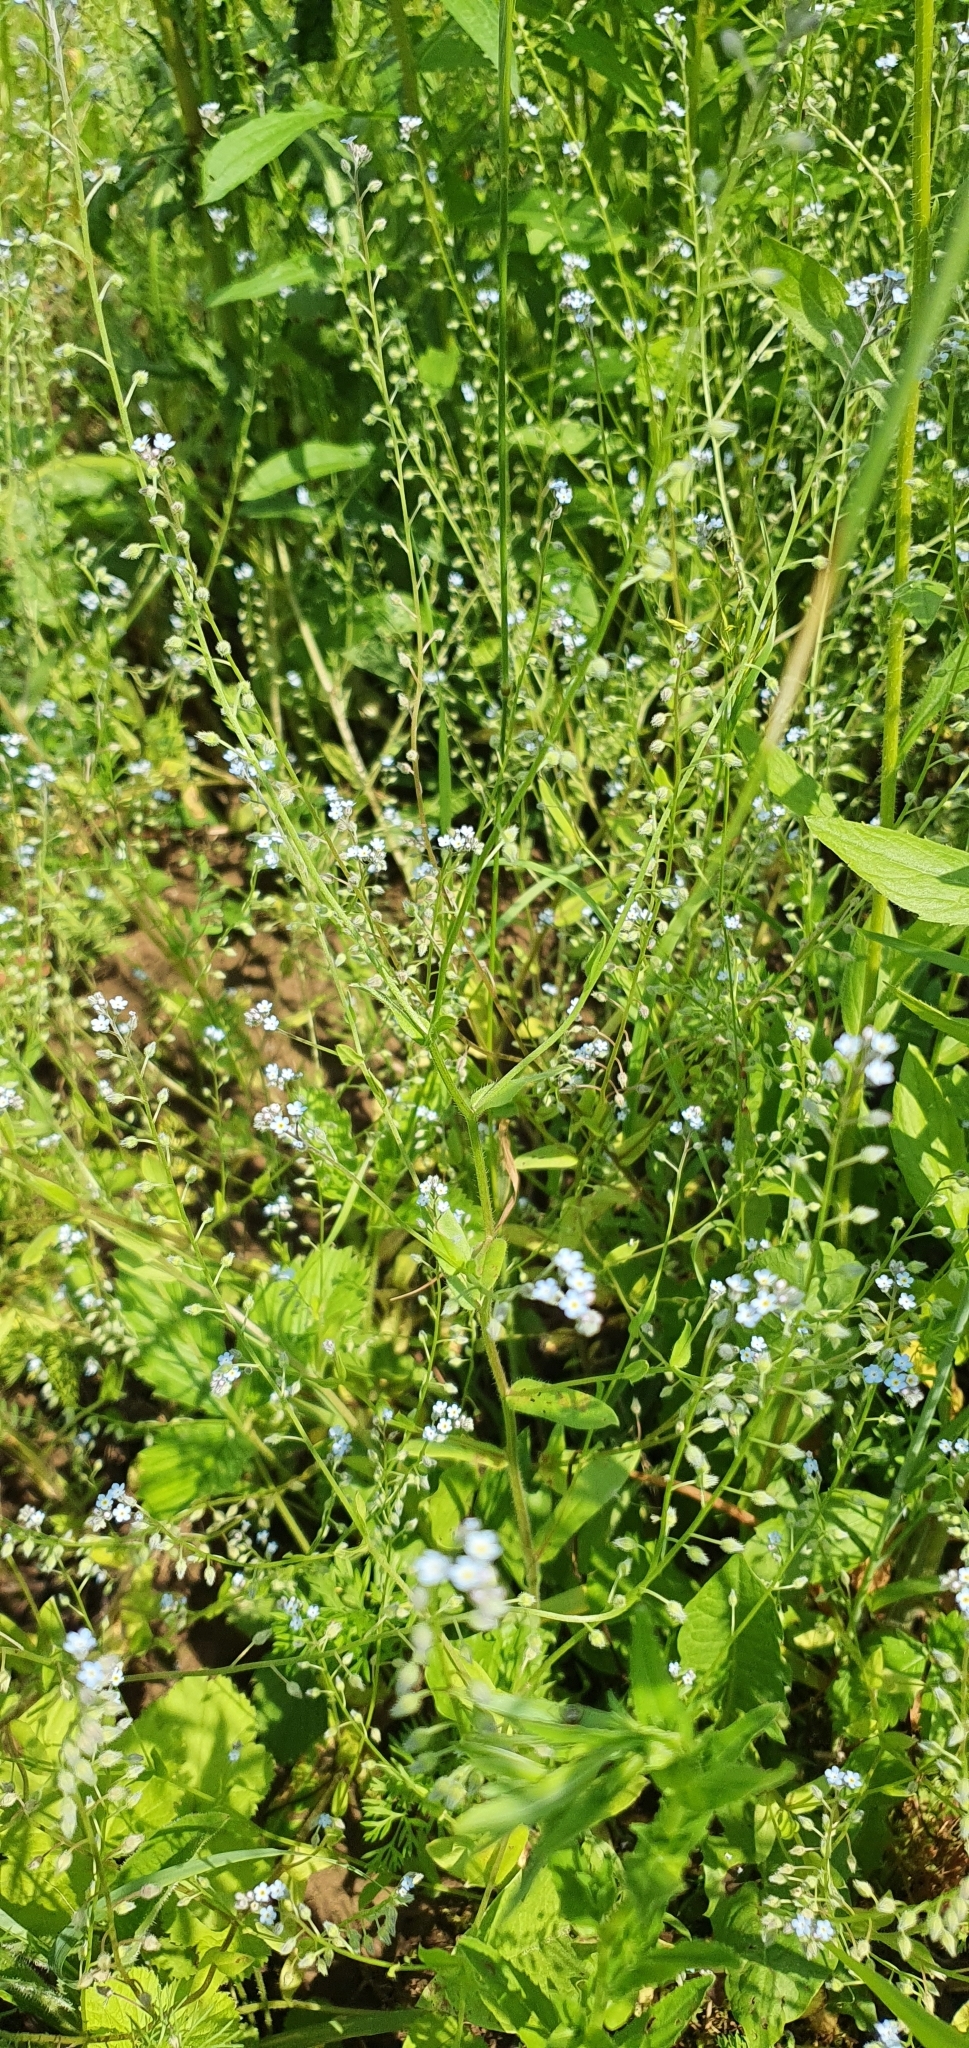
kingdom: Plantae
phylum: Tracheophyta
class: Magnoliopsida
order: Boraginales
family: Boraginaceae
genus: Myosotis
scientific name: Myosotis arvensis
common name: Field forget-me-not
